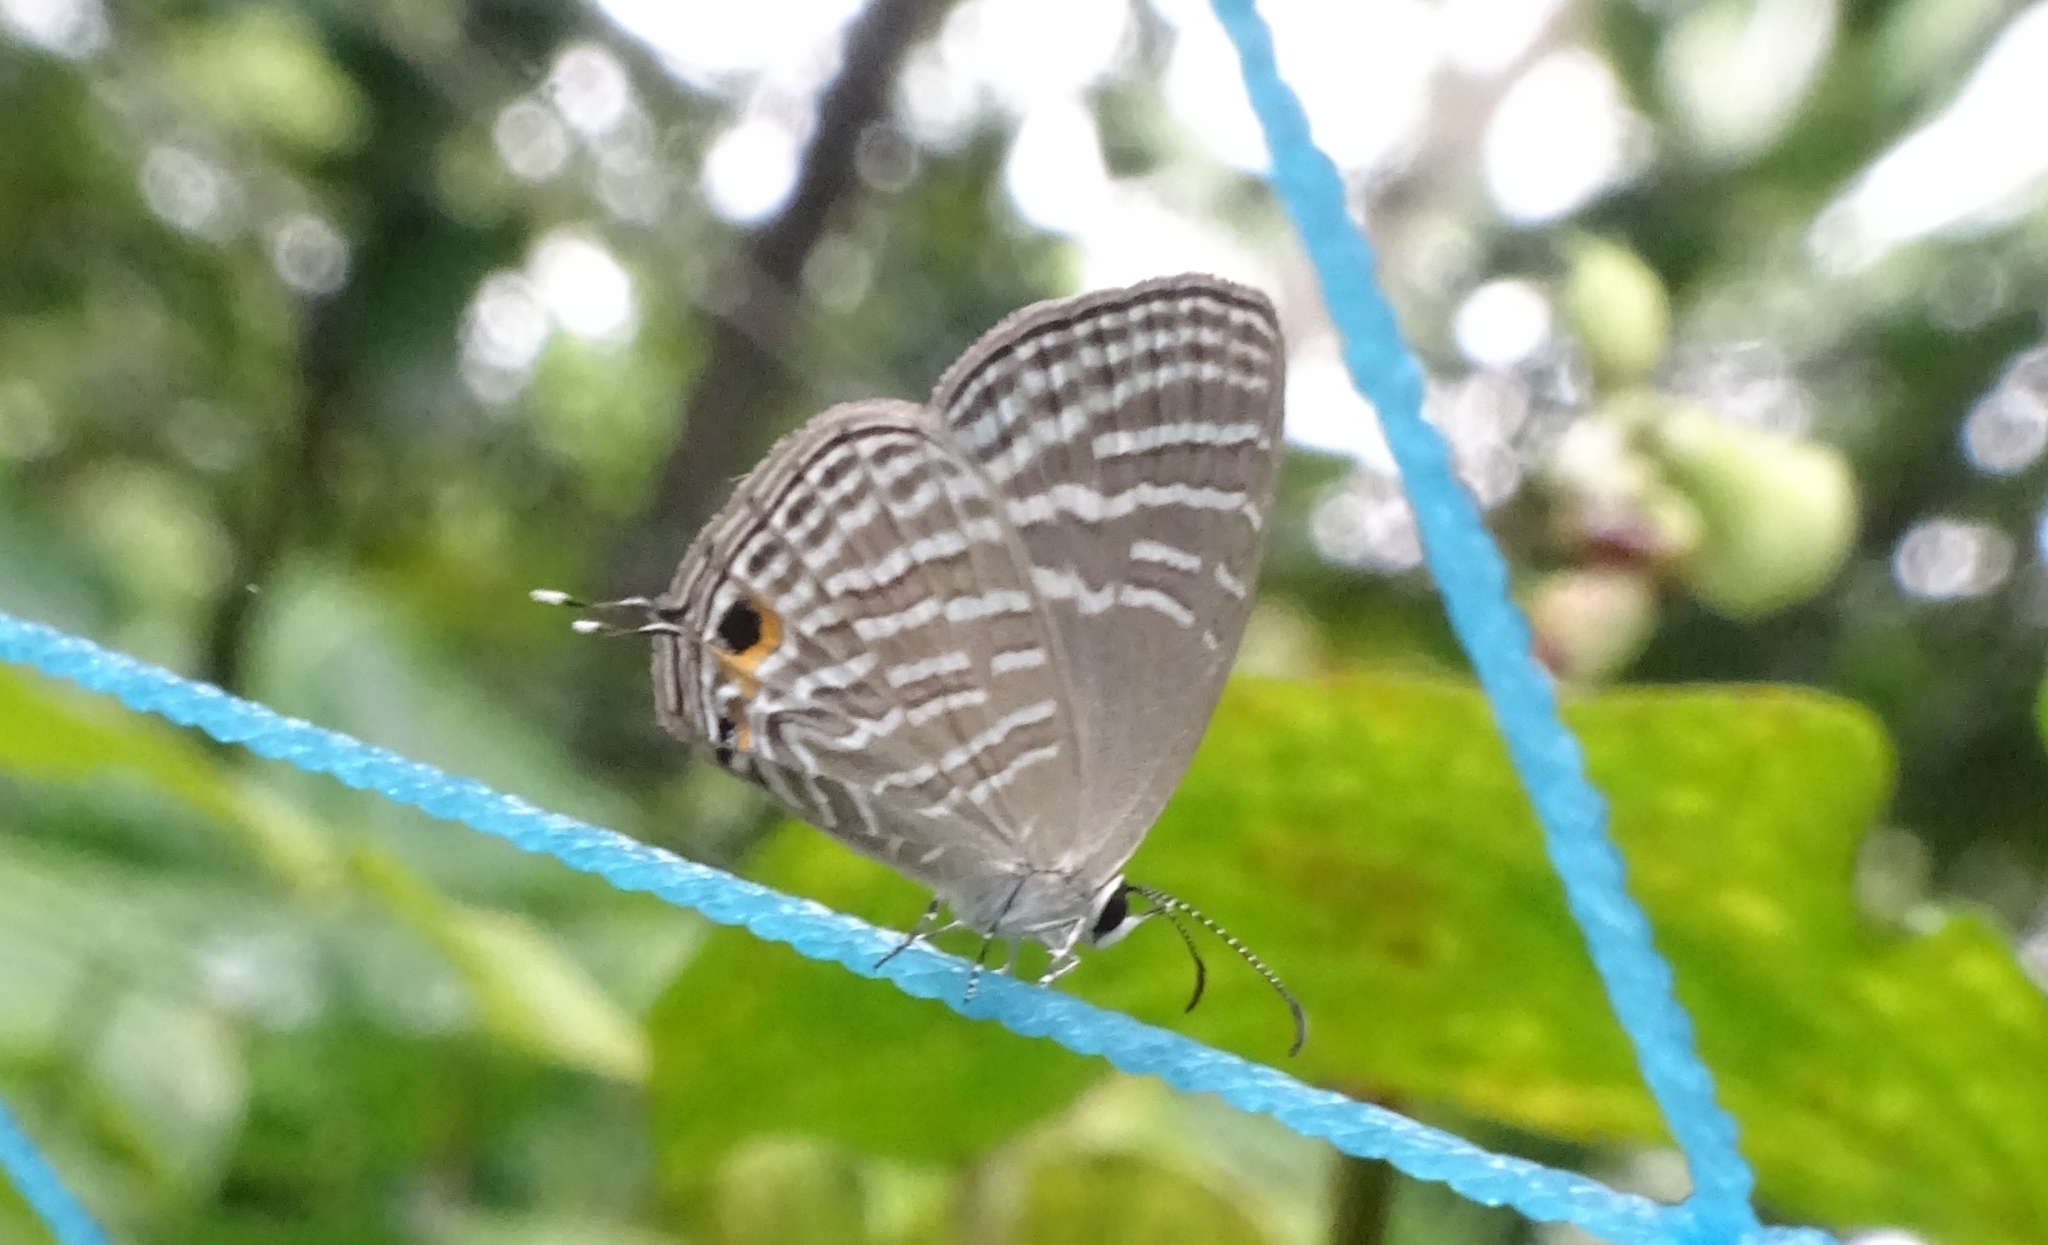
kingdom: Animalia
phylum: Arthropoda
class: Insecta
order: Lepidoptera
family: Lycaenidae
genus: Jamides
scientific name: Jamides celeno
